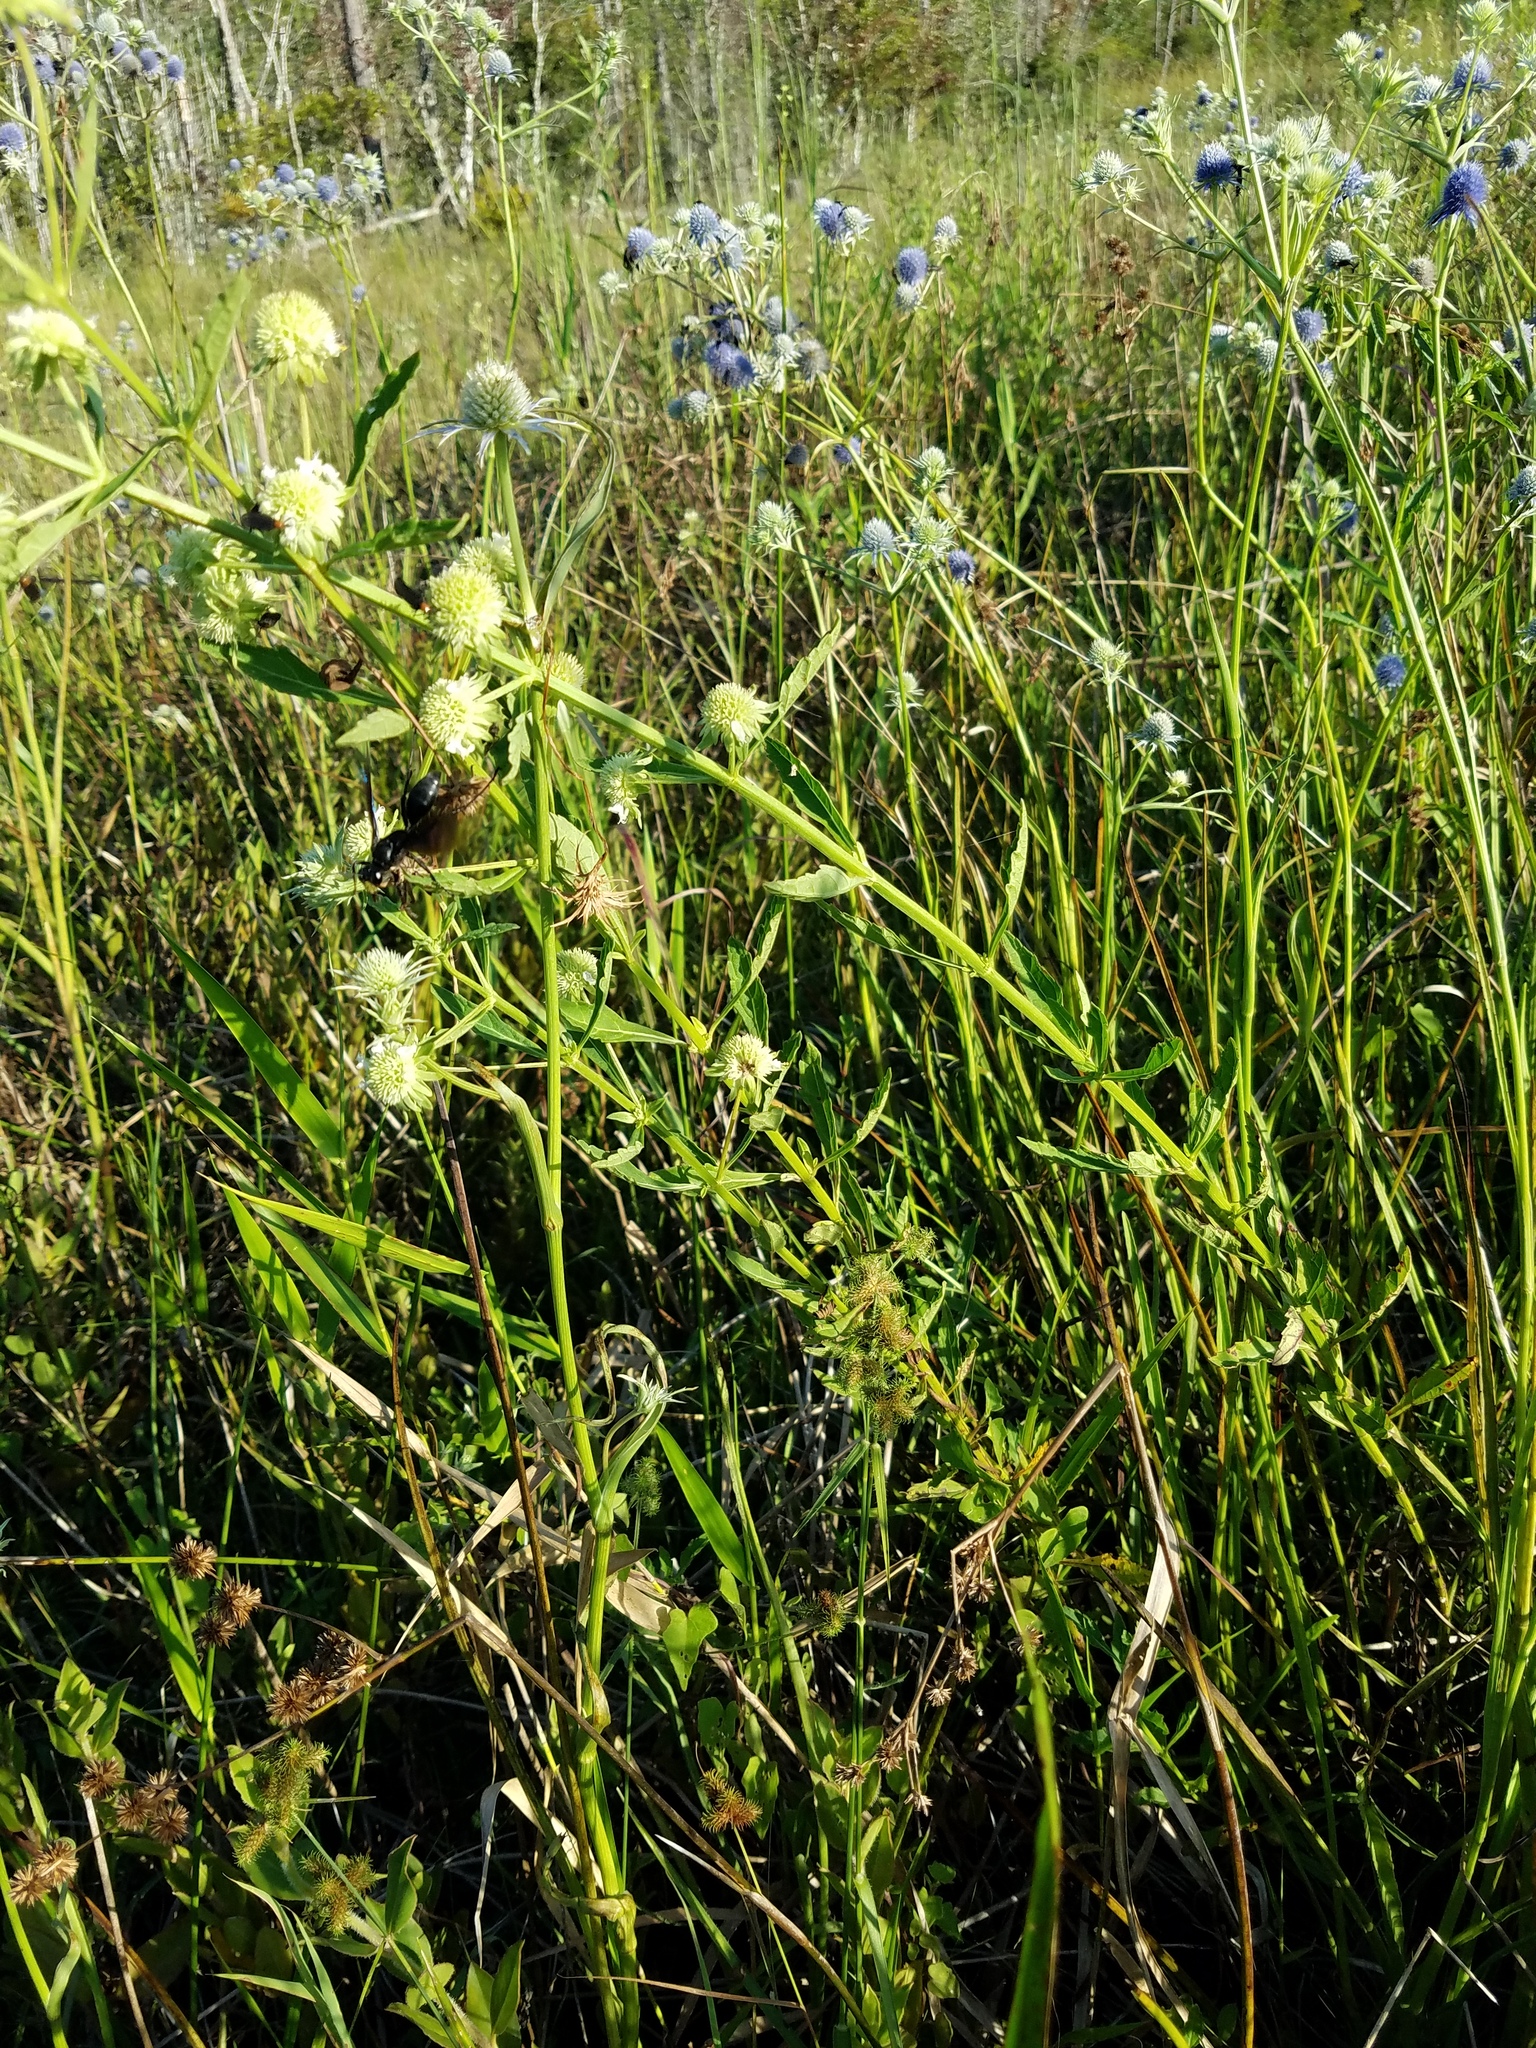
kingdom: Plantae
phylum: Tracheophyta
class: Magnoliopsida
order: Lamiales
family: Lamiaceae
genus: Hyptis
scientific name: Hyptis alata
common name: Cluster bush-mint
